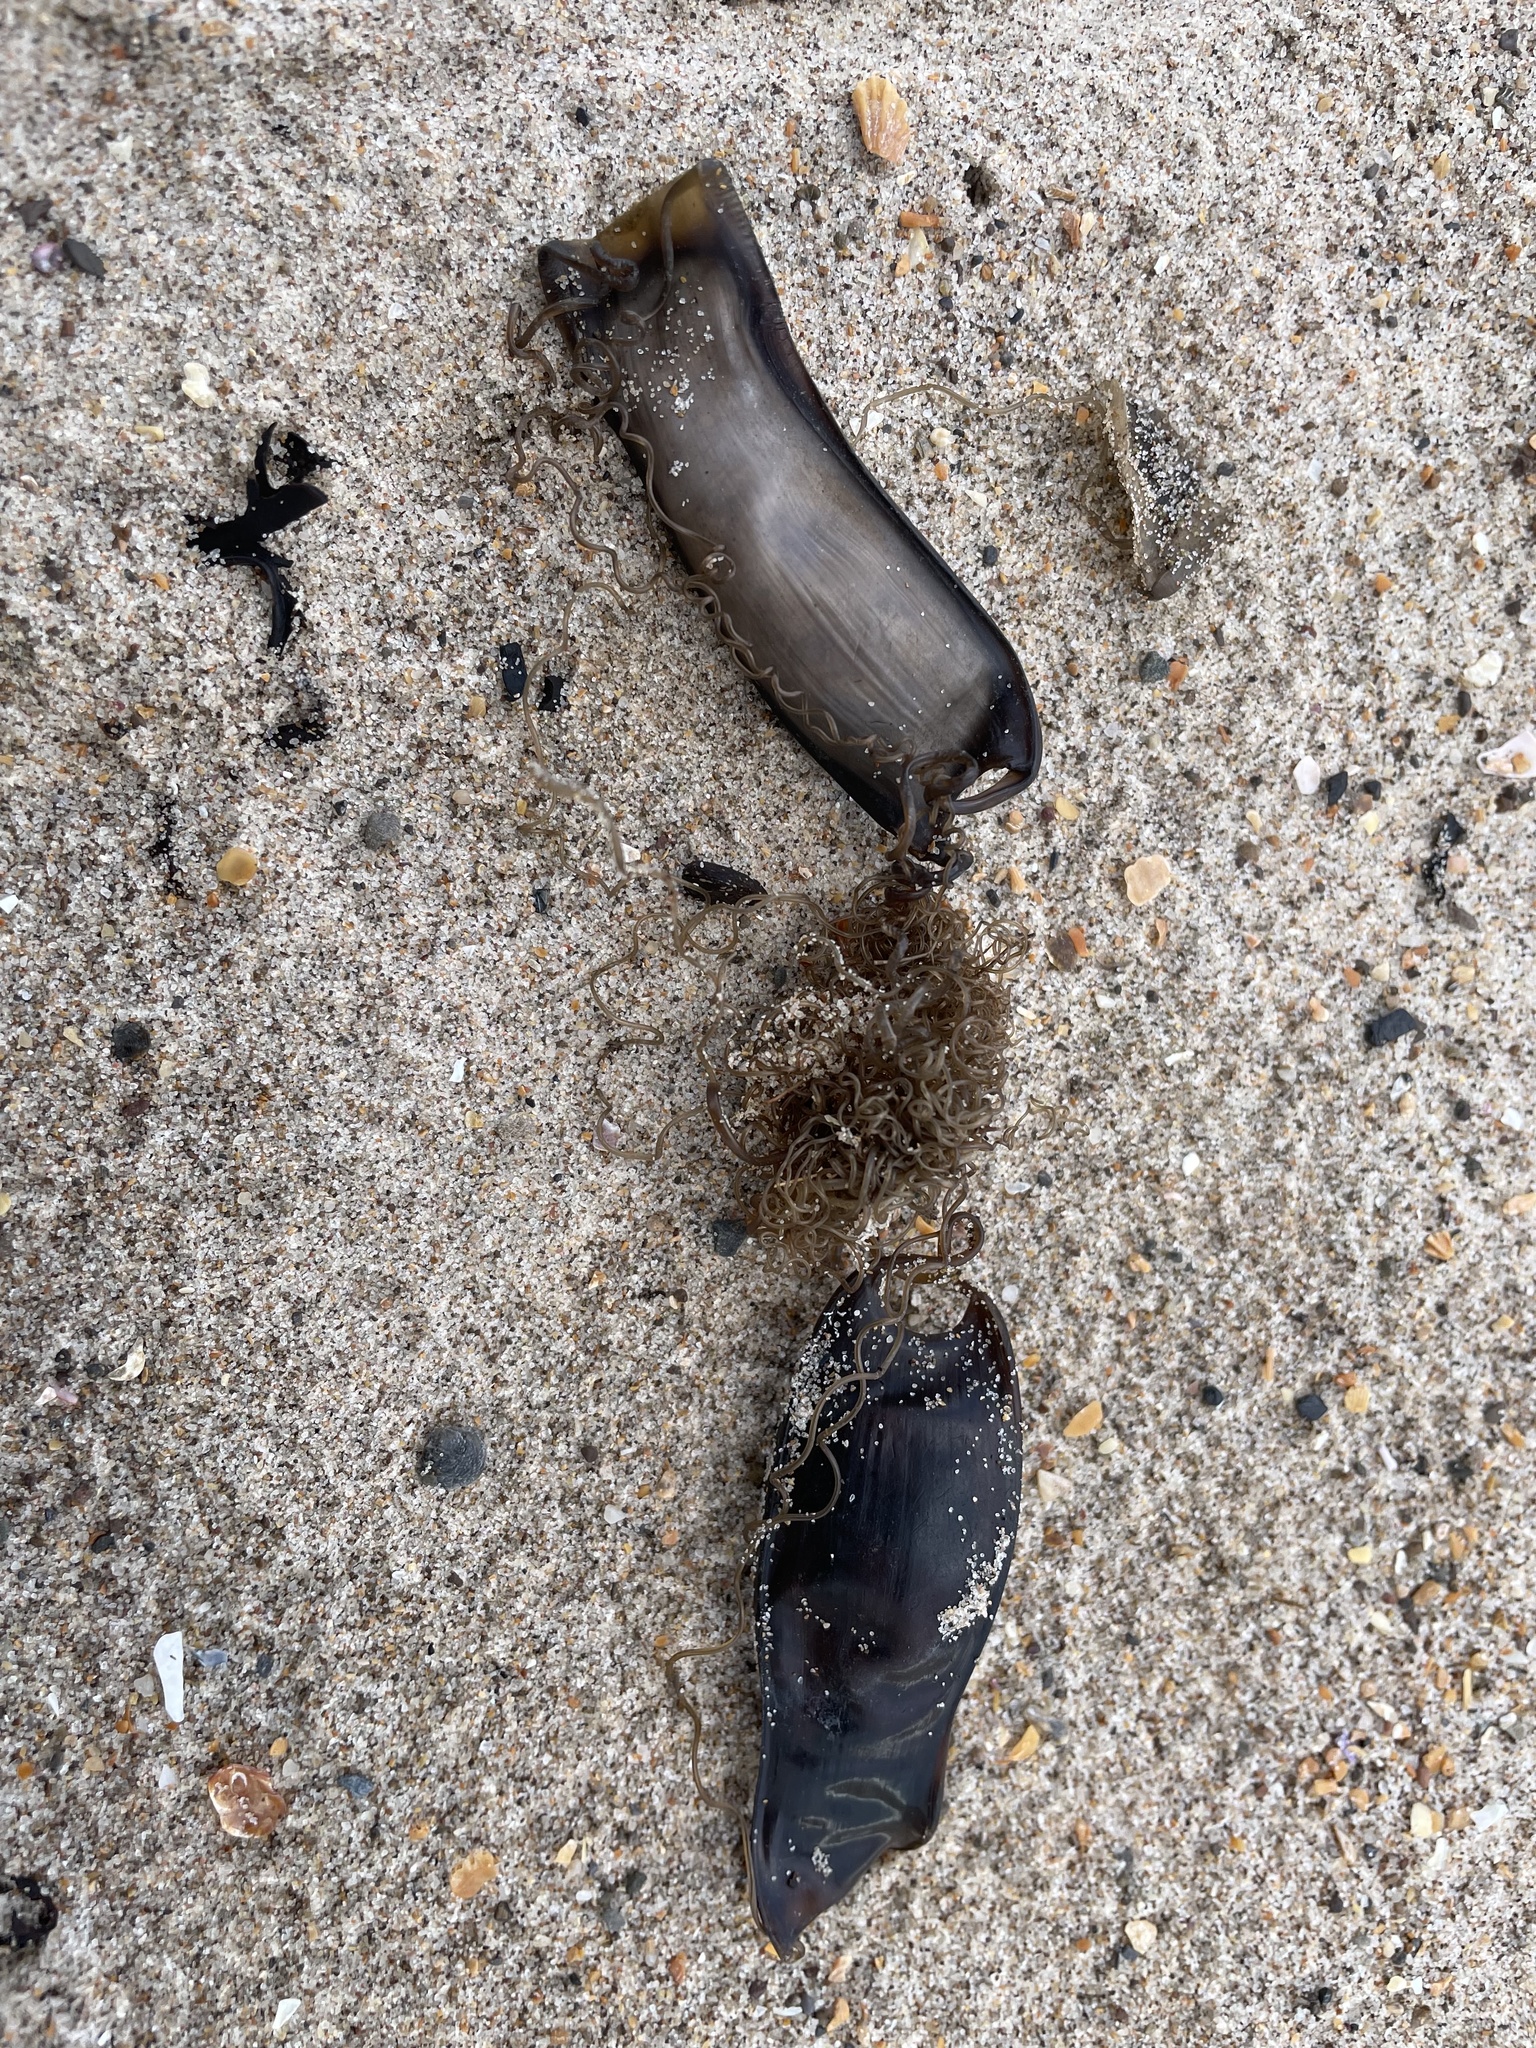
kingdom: Animalia
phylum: Chordata
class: Elasmobranchii
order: Carcharhiniformes
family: Scyliorhinidae
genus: Scyliorhinus
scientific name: Scyliorhinus canicula
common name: Lesser spotted dogfish
